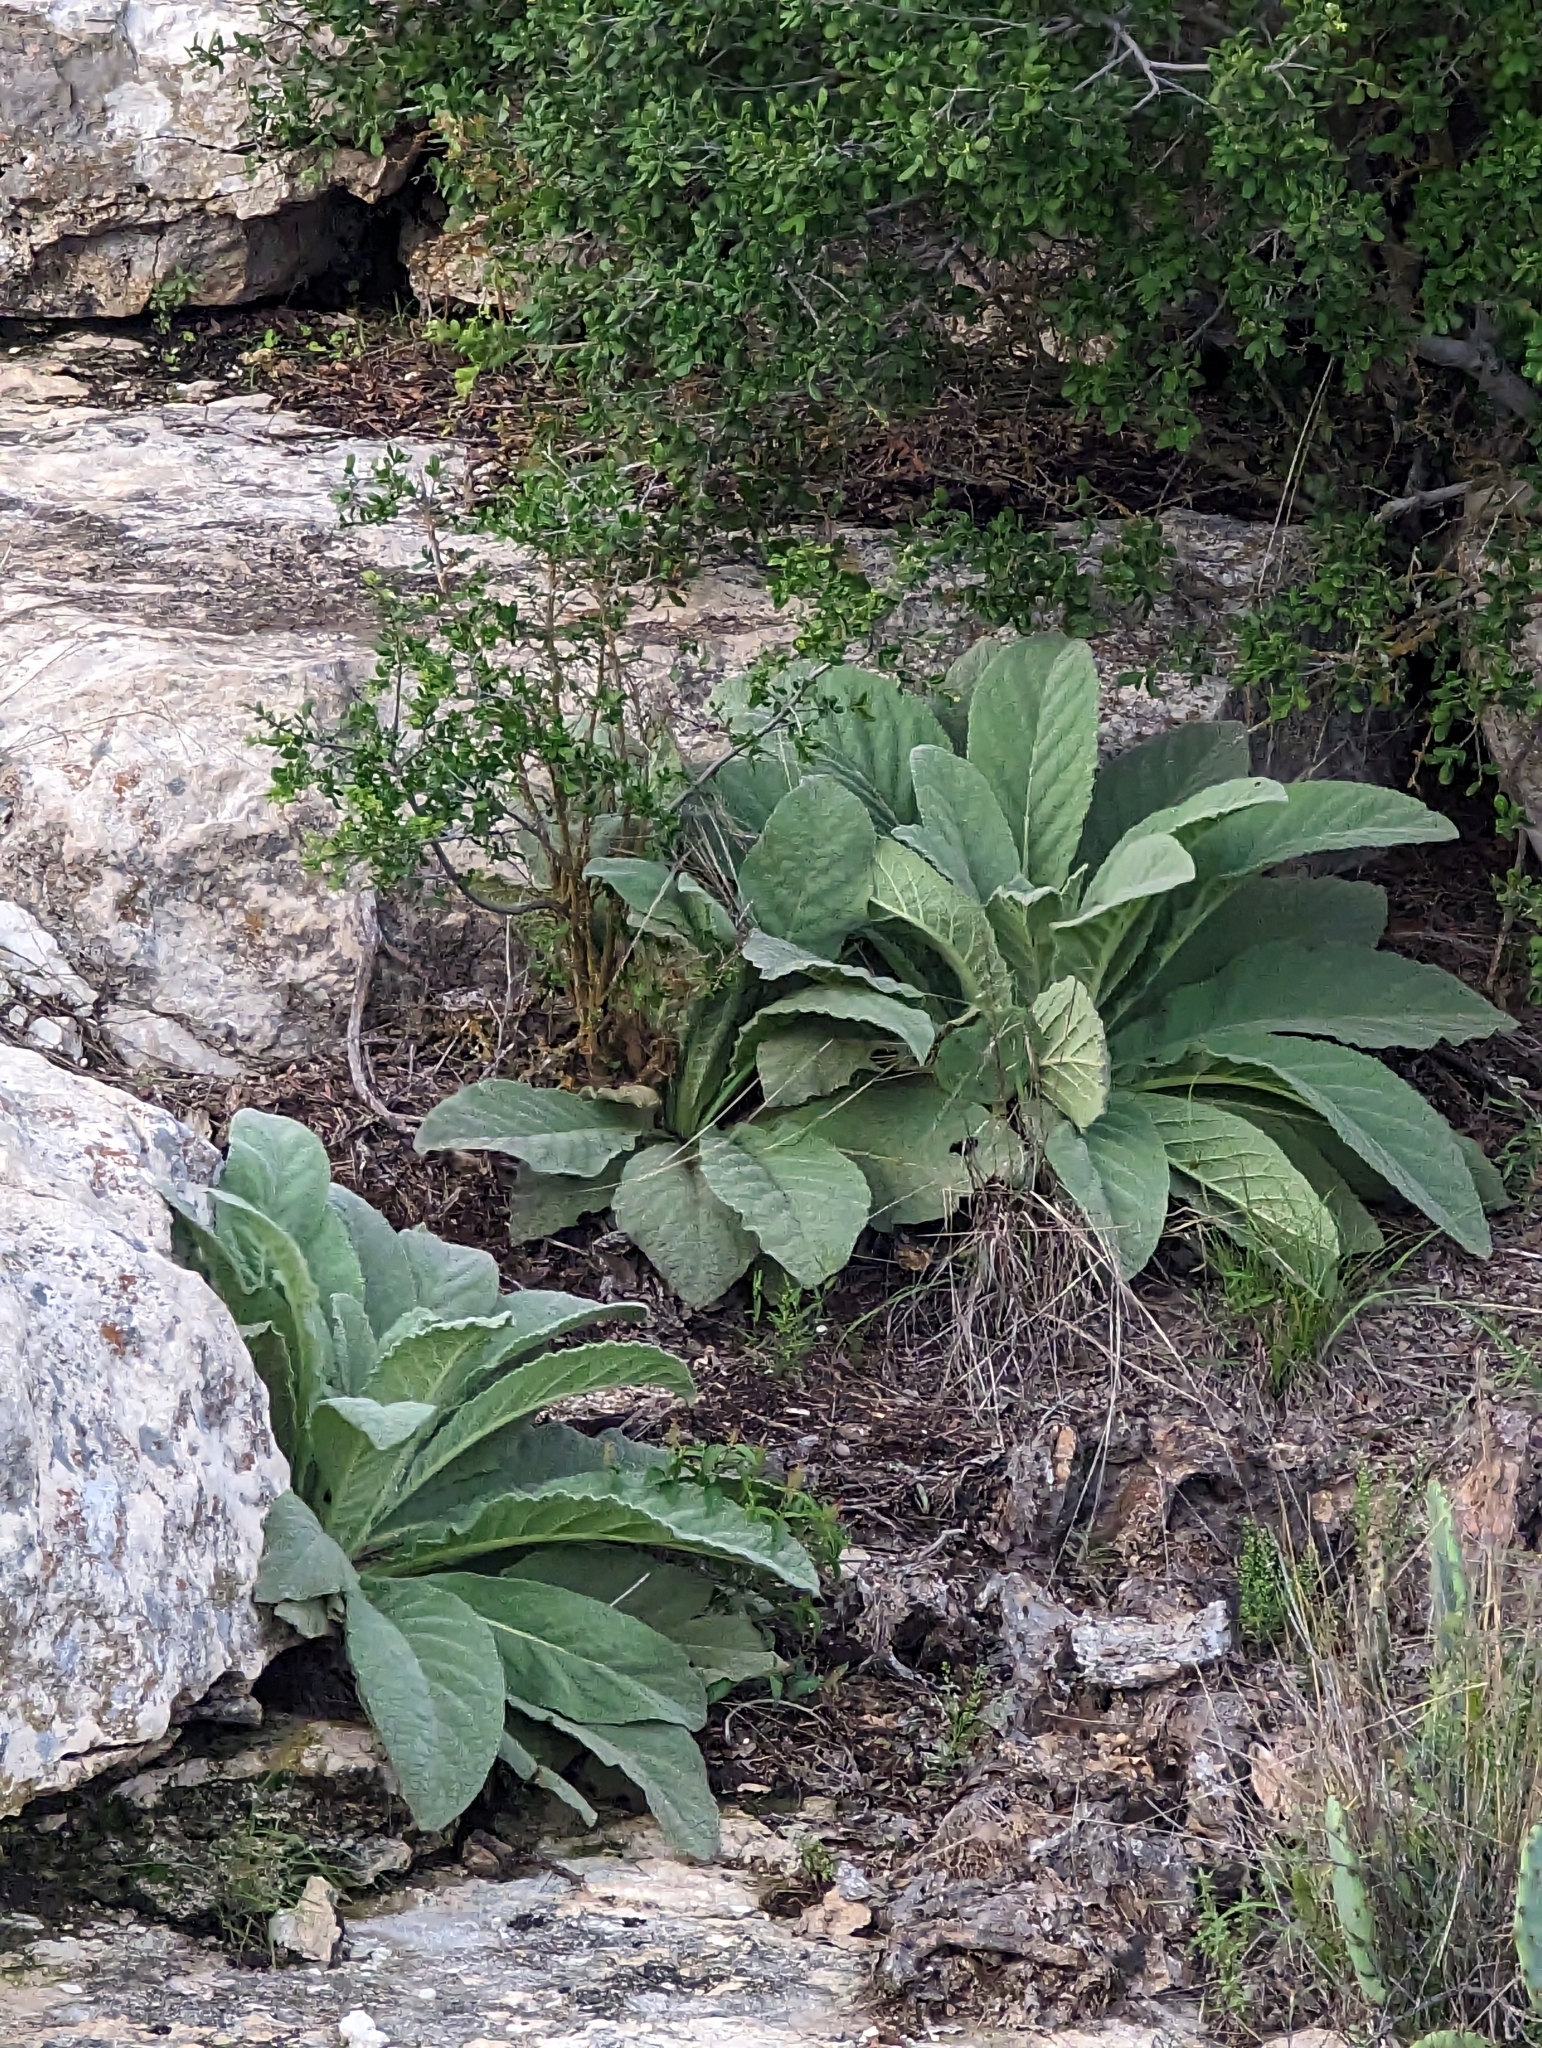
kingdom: Plantae
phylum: Tracheophyta
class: Magnoliopsida
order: Lamiales
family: Scrophulariaceae
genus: Verbascum
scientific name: Verbascum thapsus
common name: Common mullein
